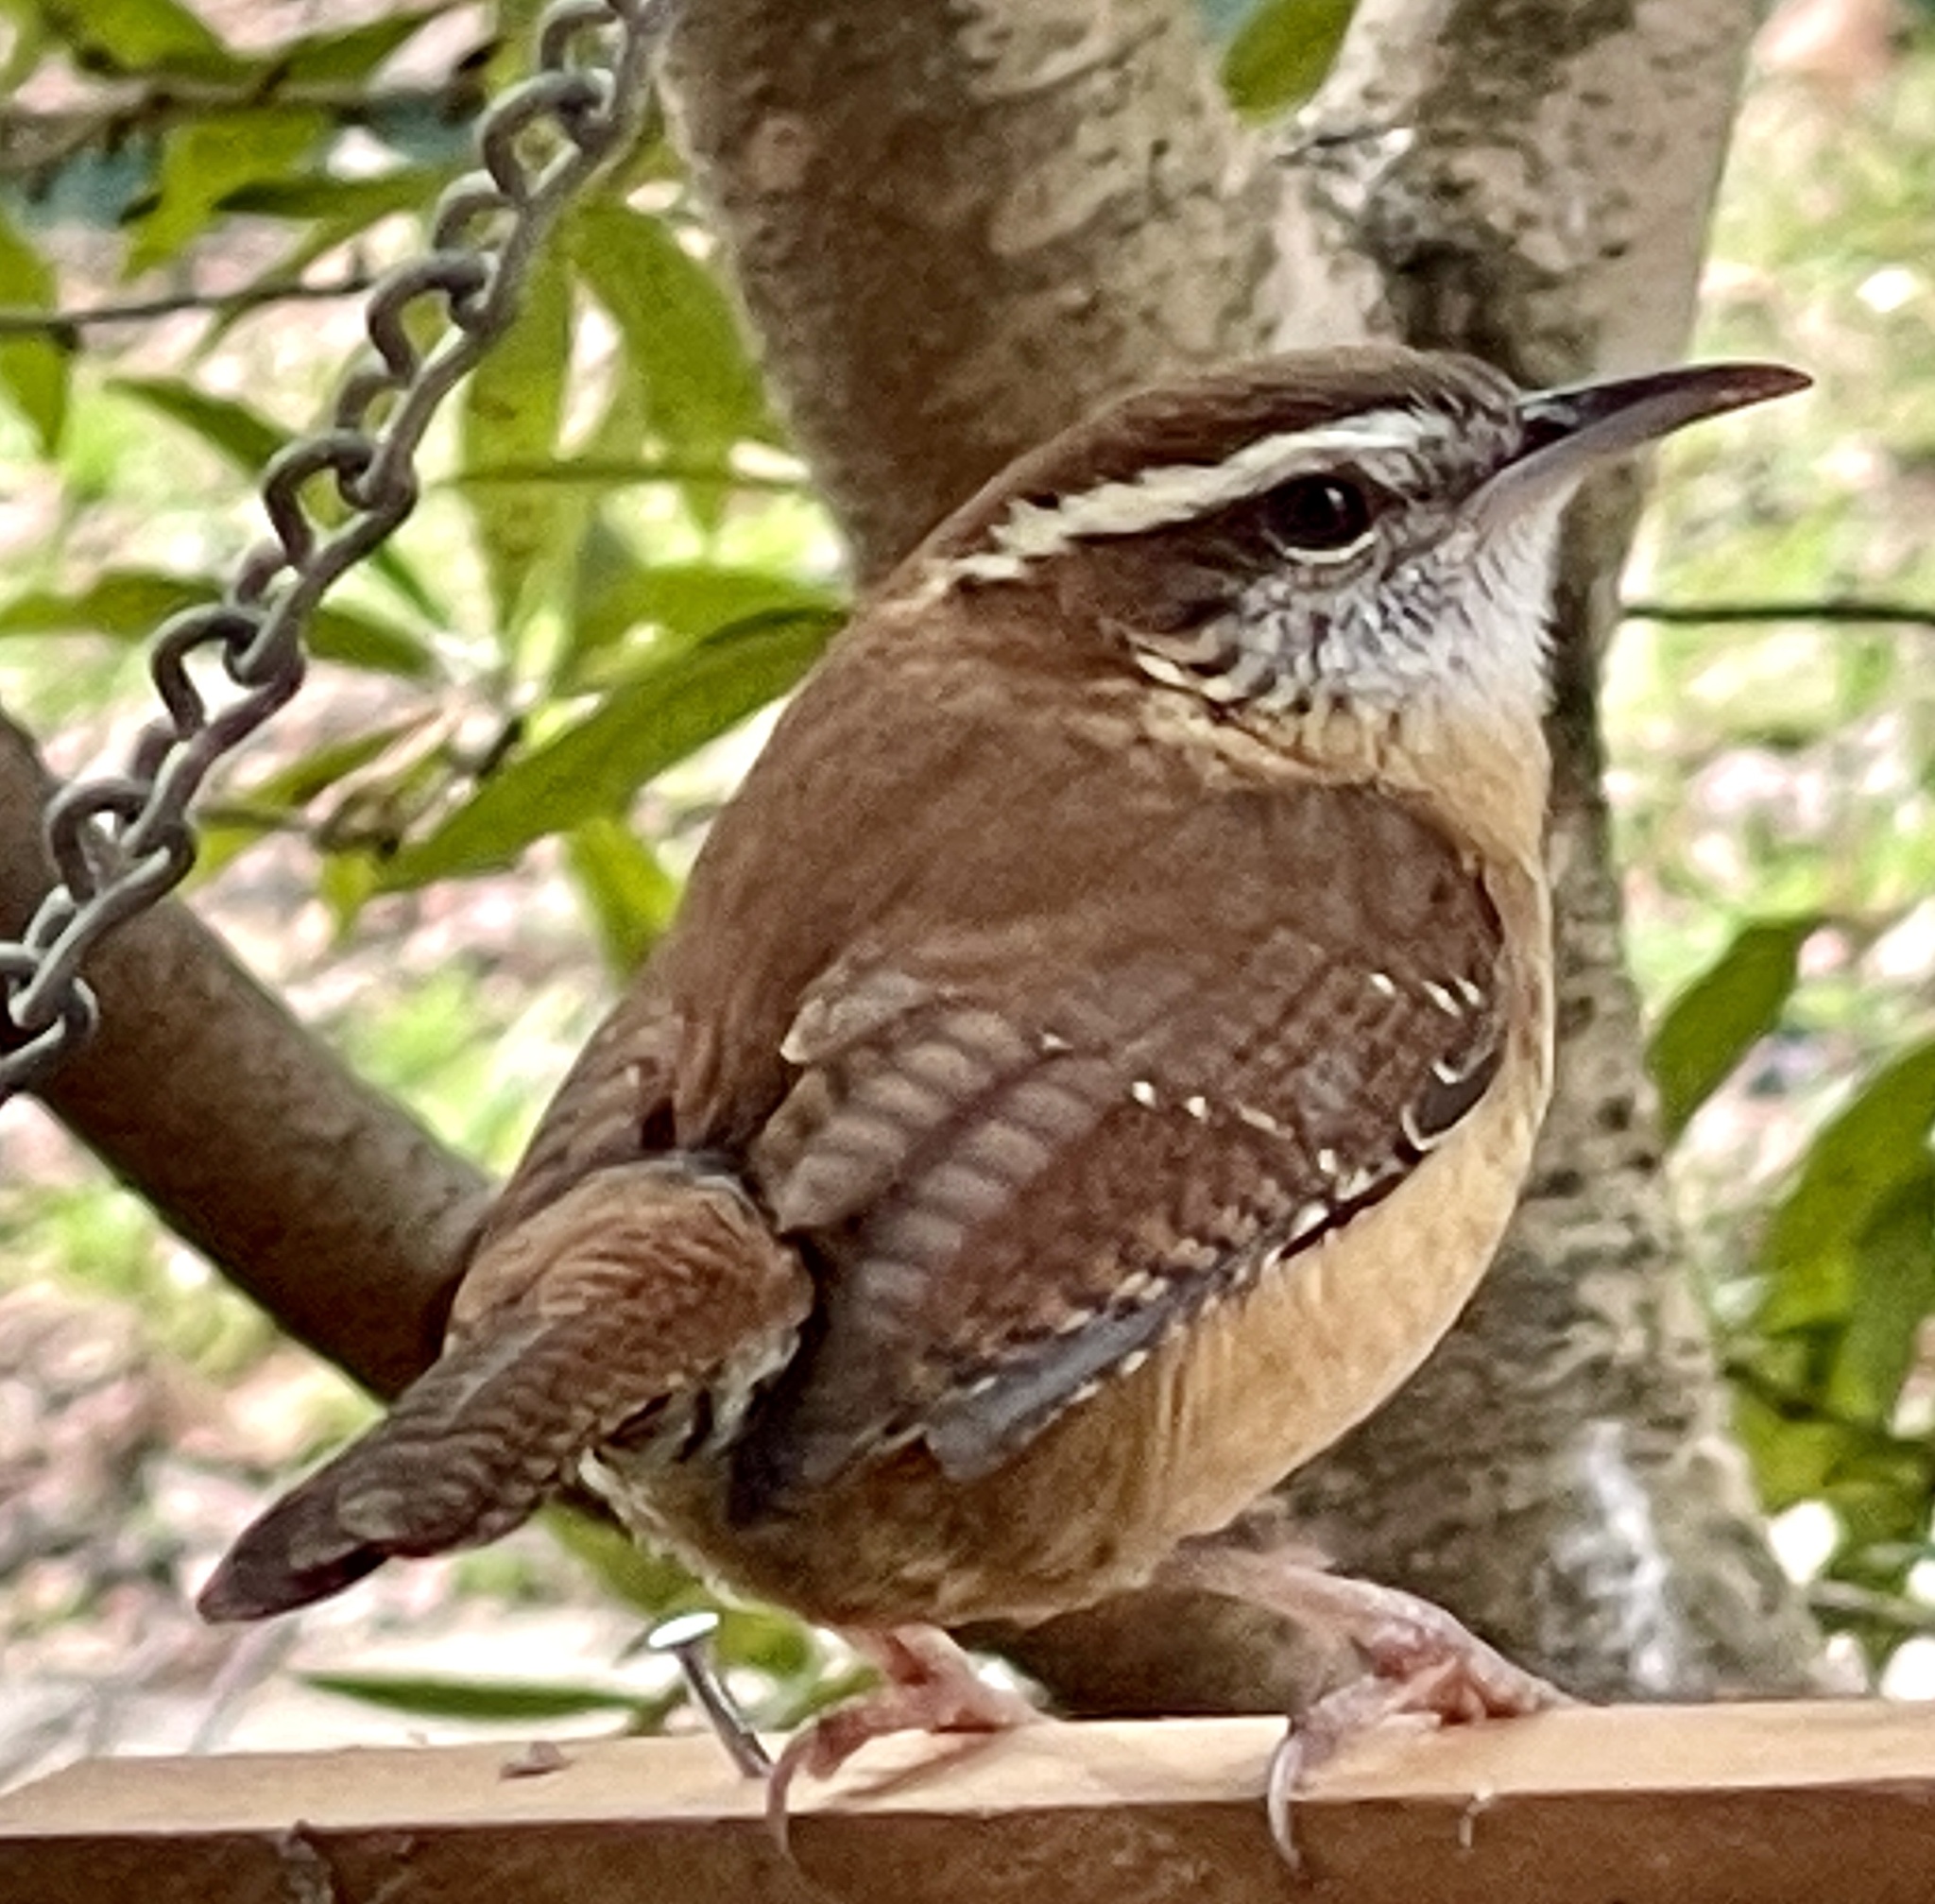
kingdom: Animalia
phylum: Chordata
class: Aves
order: Passeriformes
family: Troglodytidae
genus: Thryothorus
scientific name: Thryothorus ludovicianus
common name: Carolina wren
